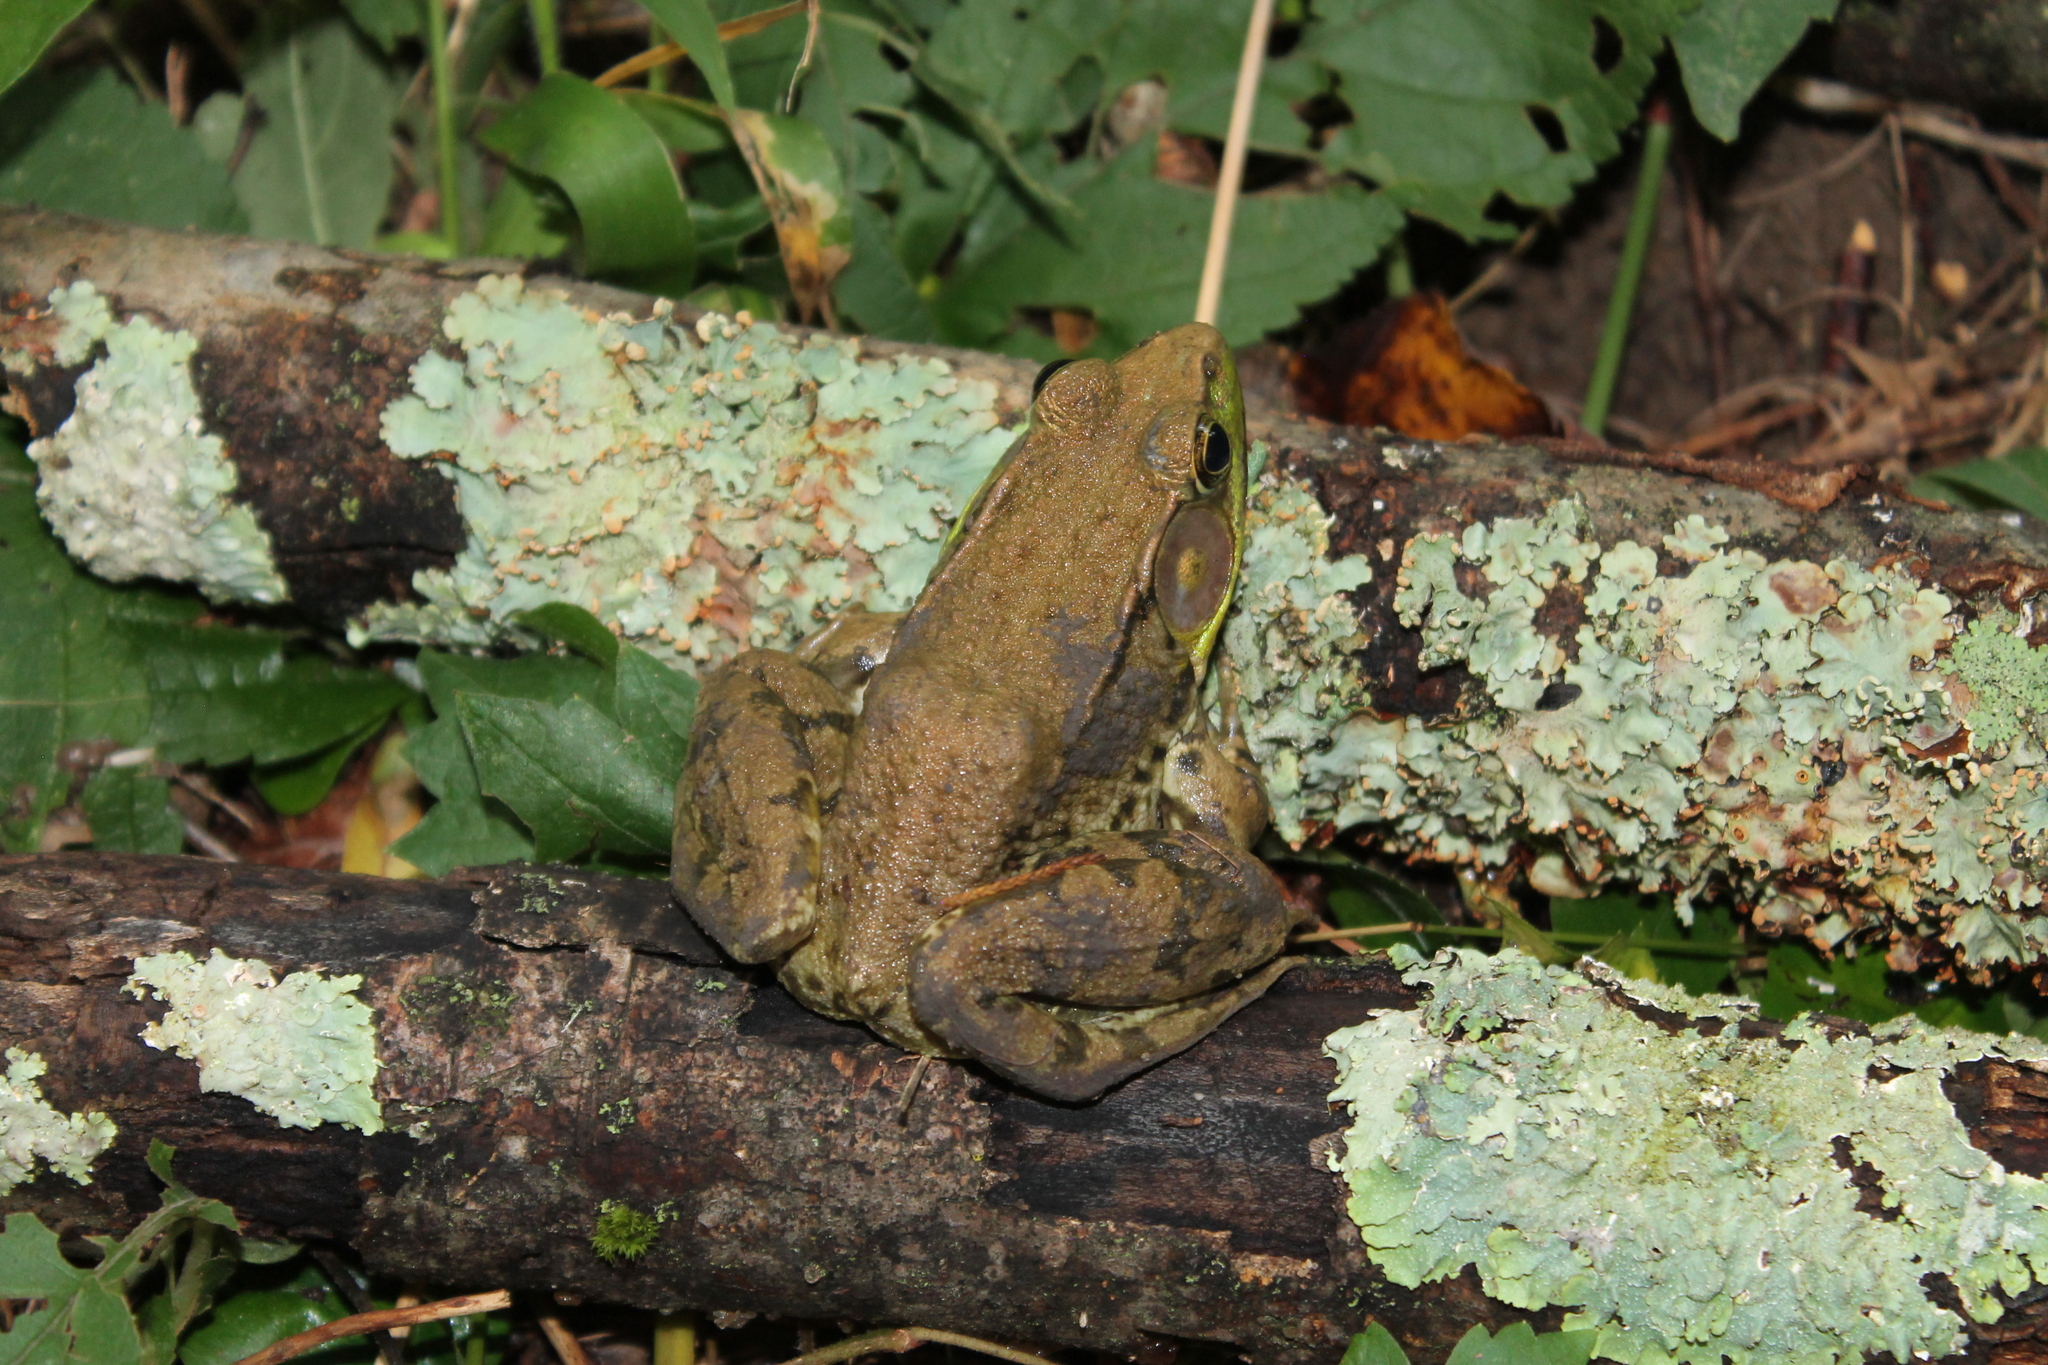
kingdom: Animalia
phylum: Chordata
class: Amphibia
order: Anura
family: Ranidae
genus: Lithobates
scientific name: Lithobates clamitans
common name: Green frog
